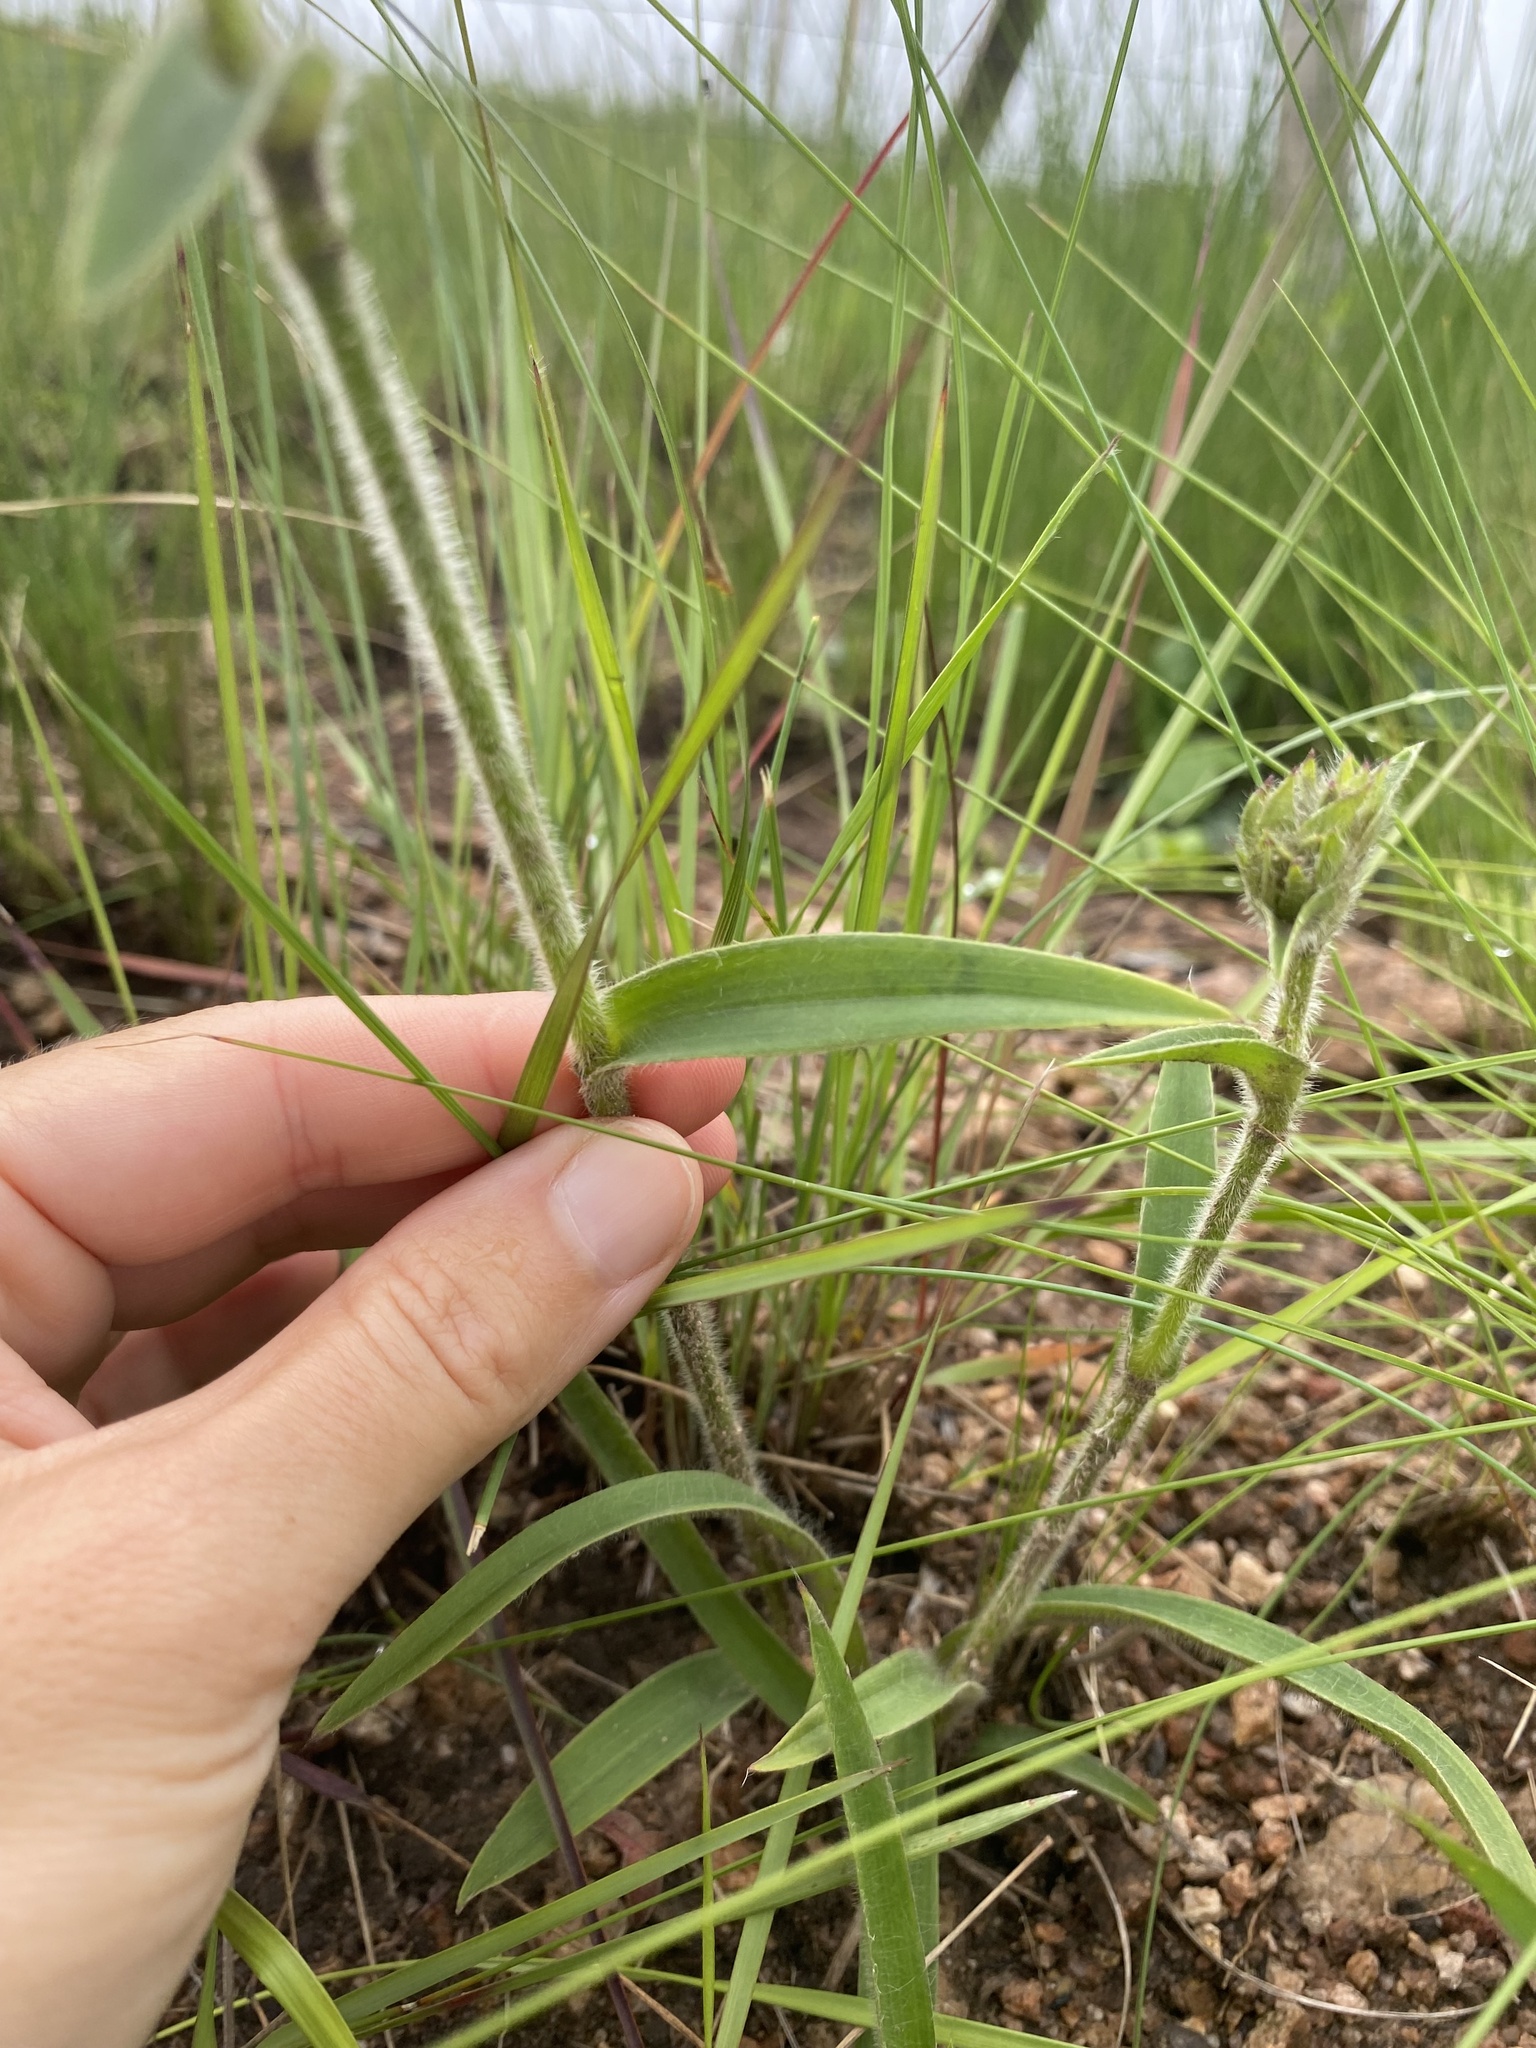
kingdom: Plantae
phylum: Tracheophyta
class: Liliopsida
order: Commelinales
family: Commelinaceae
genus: Cyanotis
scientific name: Cyanotis speciosa
